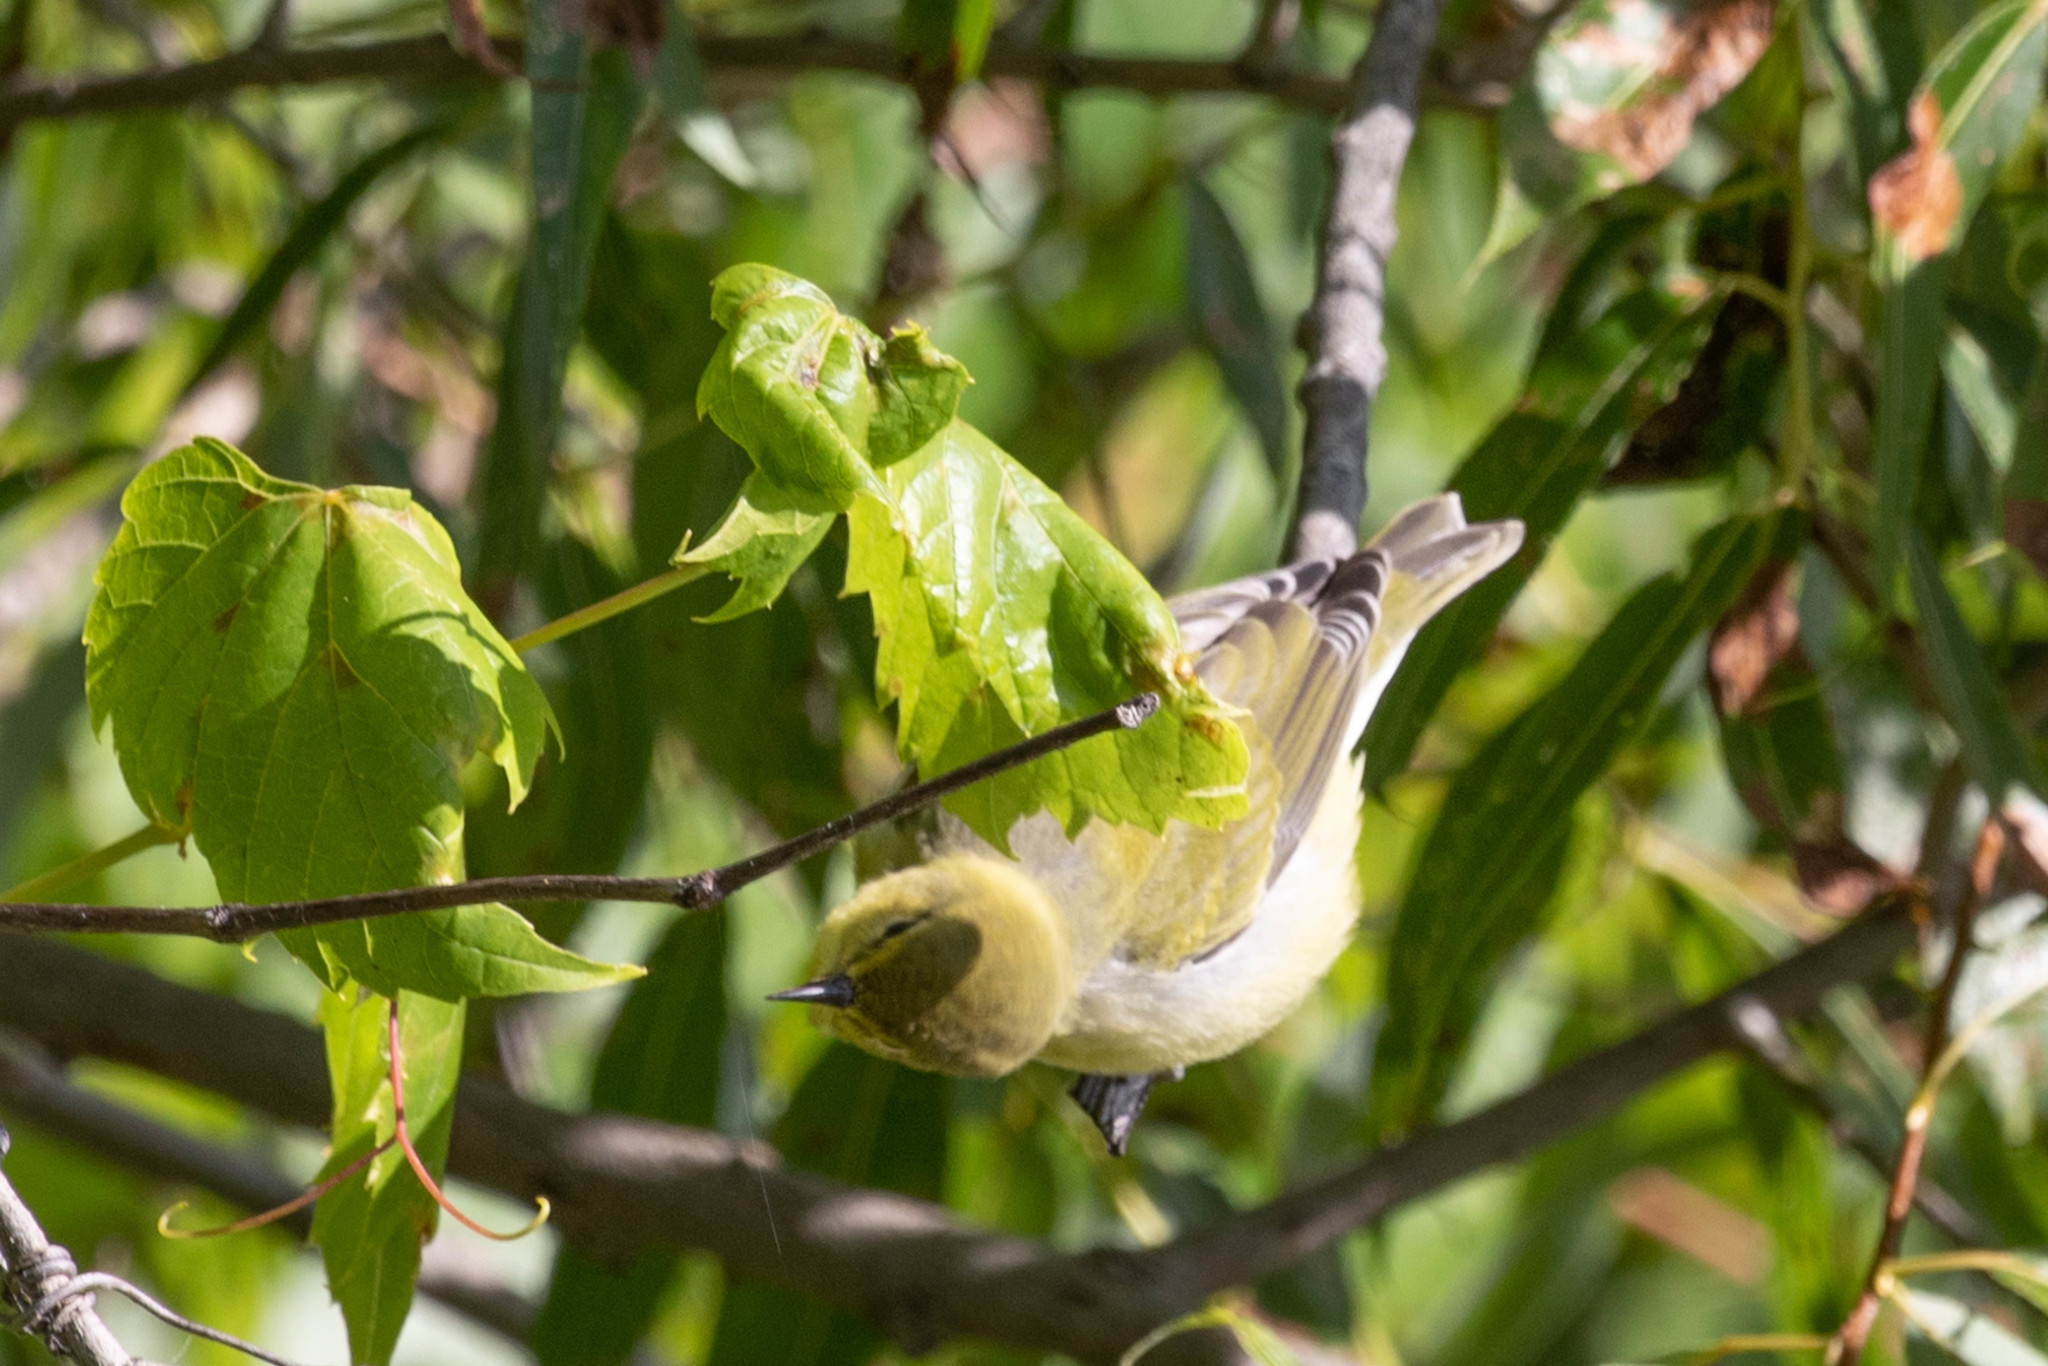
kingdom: Animalia
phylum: Chordata
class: Aves
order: Passeriformes
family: Parulidae
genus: Leiothlypis
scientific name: Leiothlypis peregrina
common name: Tennessee warbler
